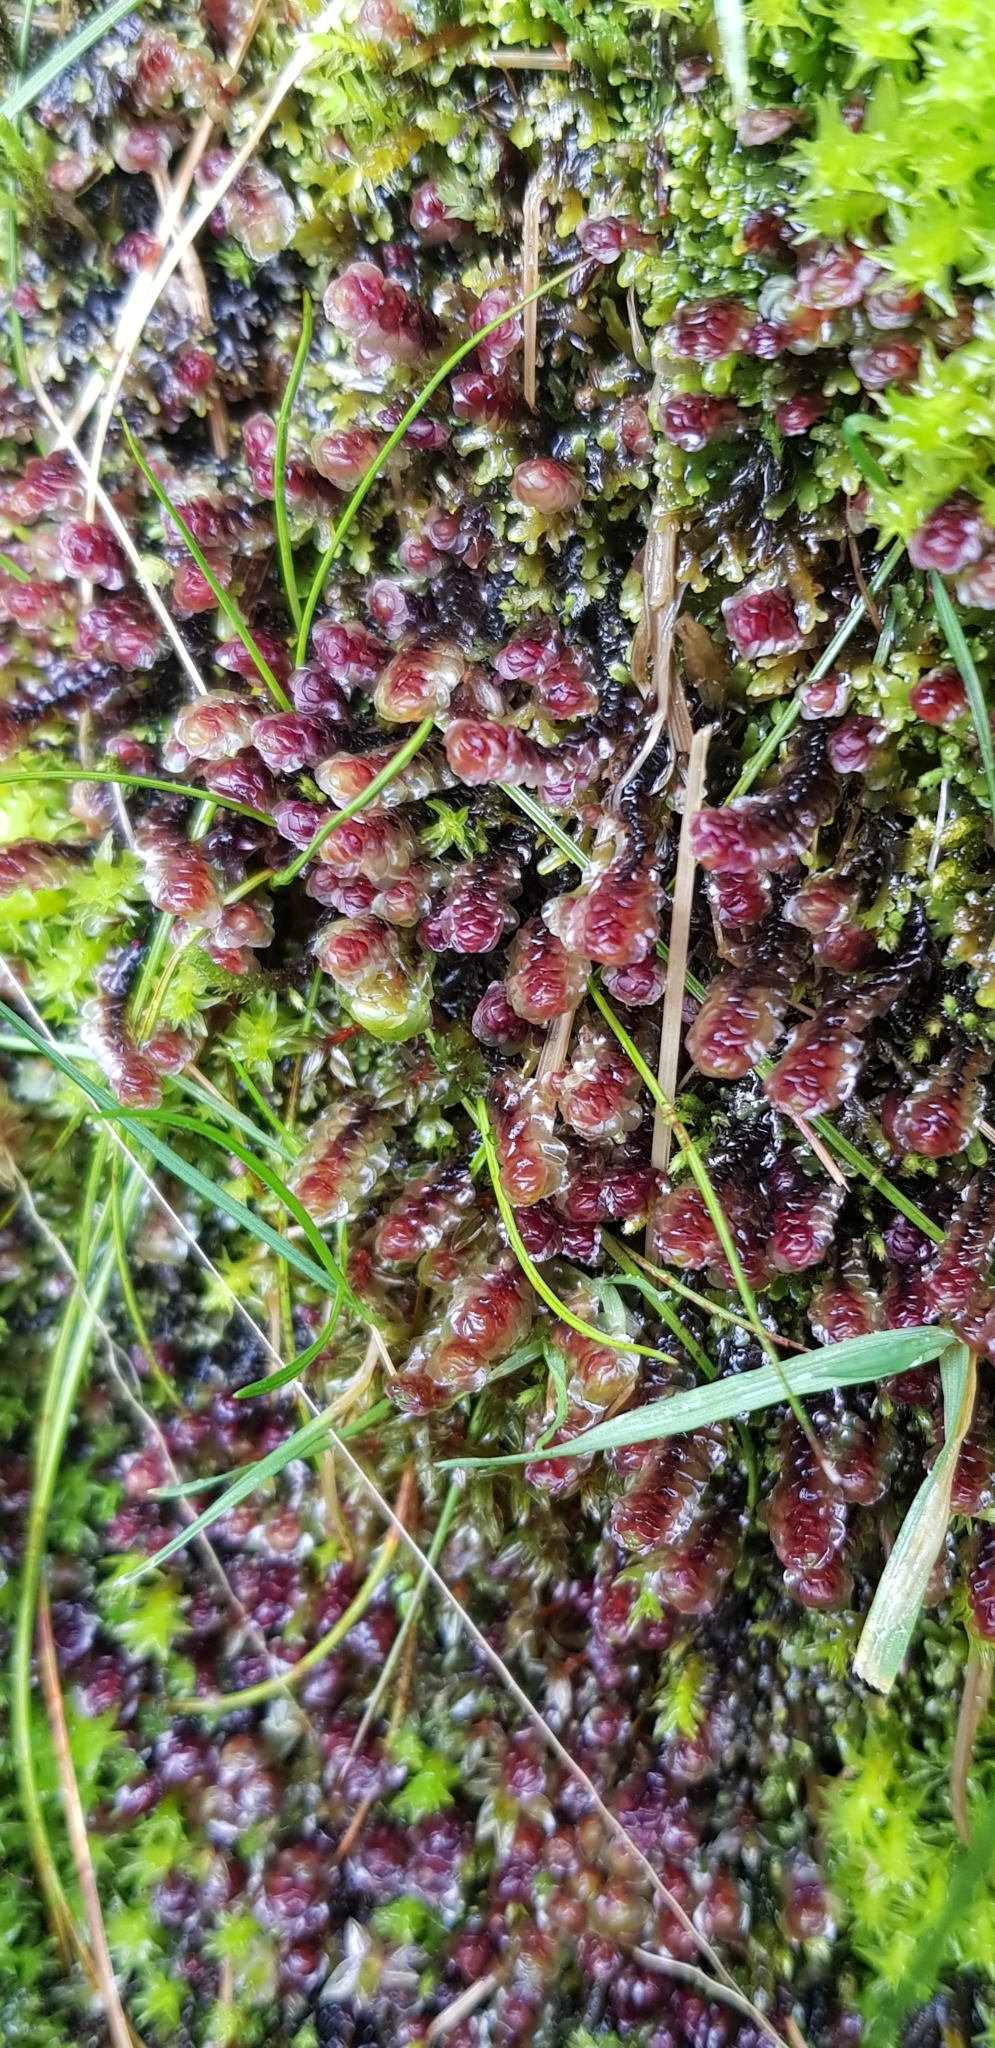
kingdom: Plantae
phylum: Marchantiophyta
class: Jungermanniopsida
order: Jungermanniales
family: Scapaniaceae
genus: Scapania
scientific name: Scapania undulata
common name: Water earwort
